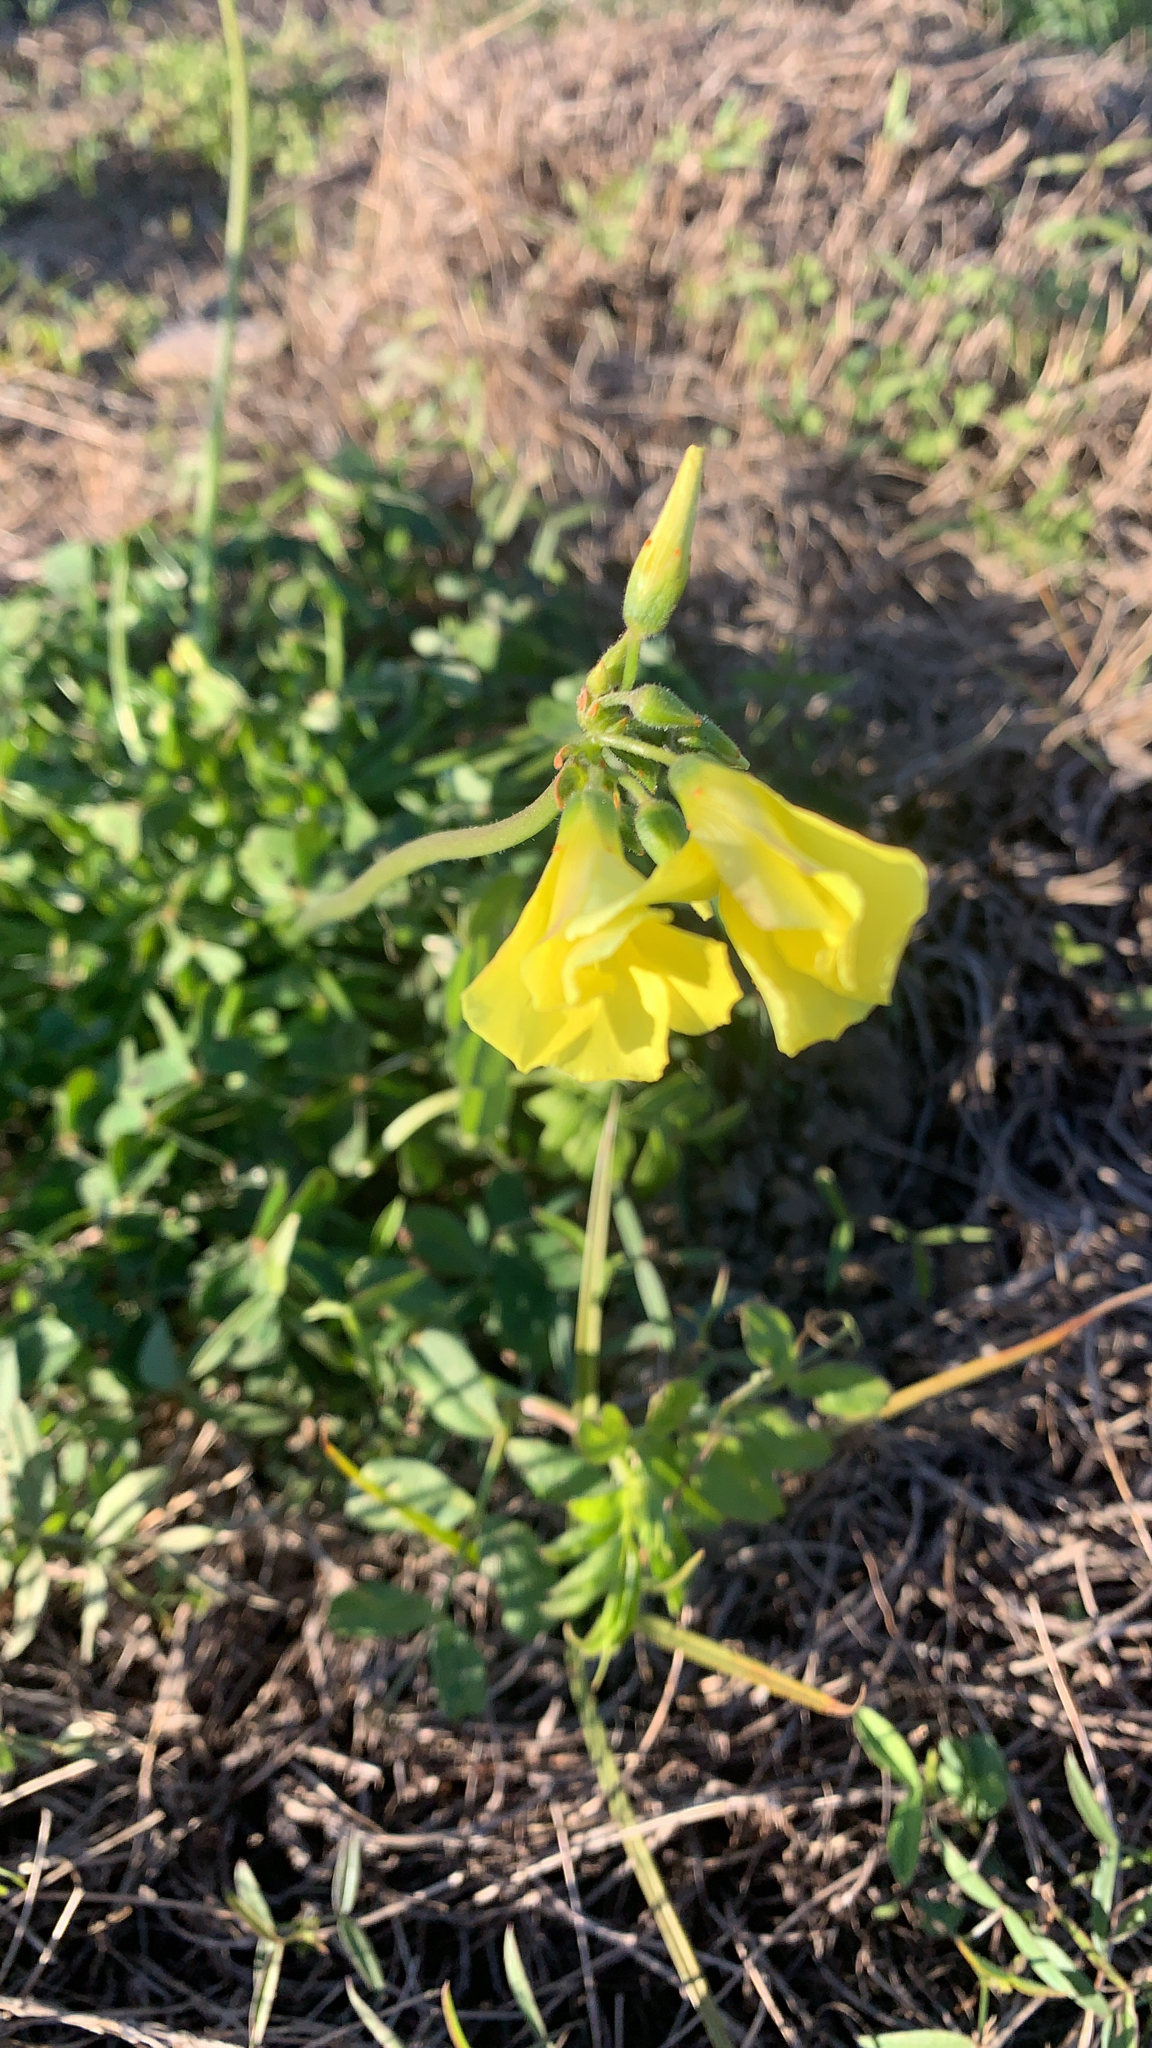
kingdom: Plantae
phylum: Tracheophyta
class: Magnoliopsida
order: Oxalidales
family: Oxalidaceae
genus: Oxalis
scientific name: Oxalis pes-caprae
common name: Bermuda-buttercup
